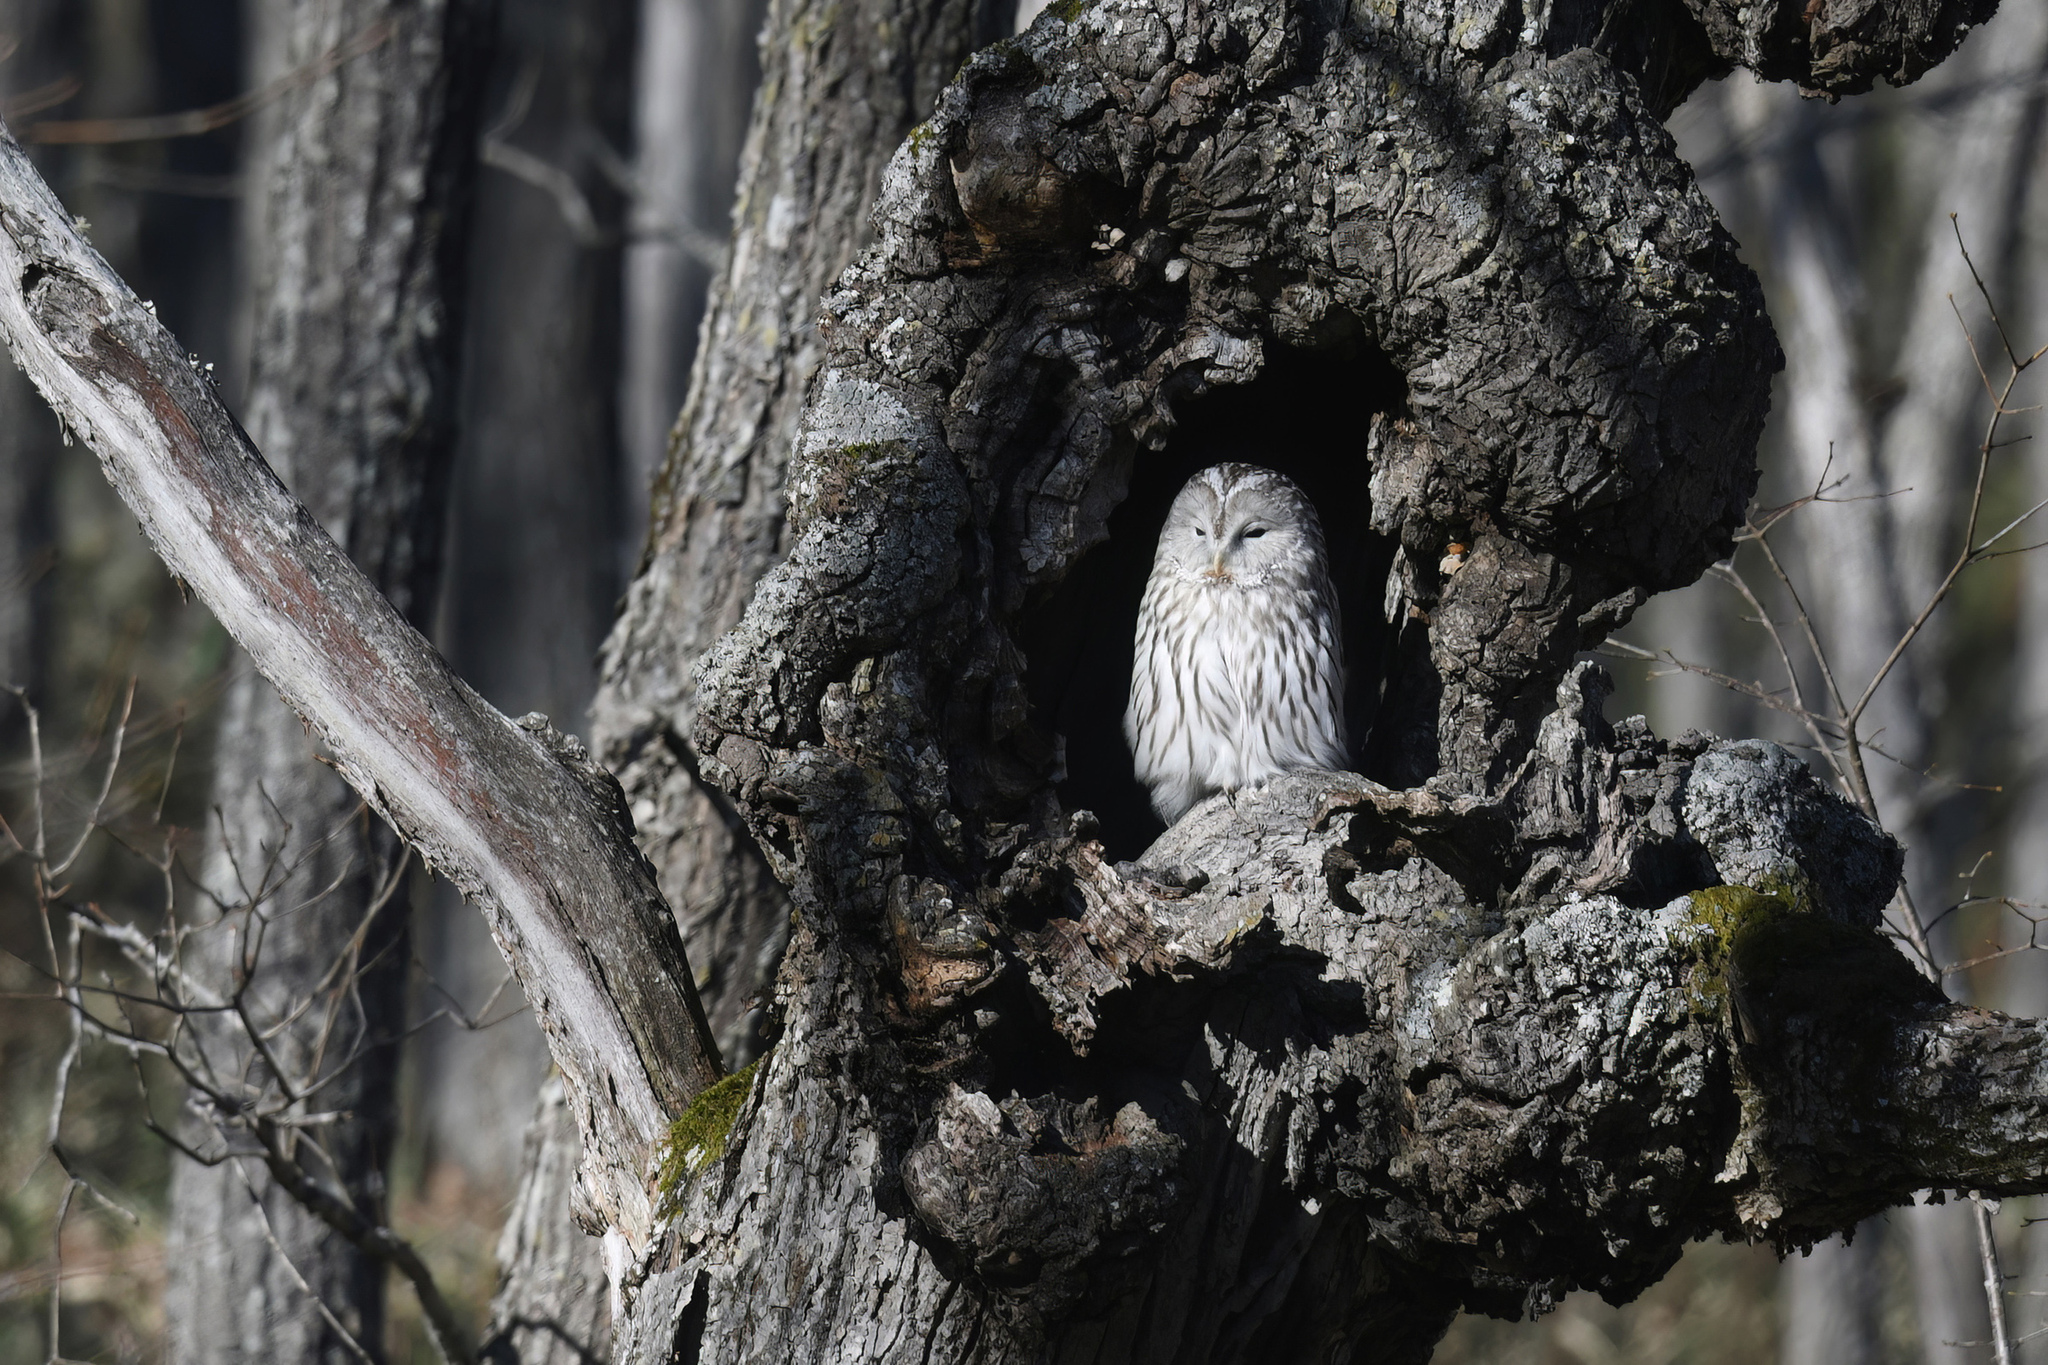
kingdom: Animalia
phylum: Chordata
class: Aves
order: Strigiformes
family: Strigidae
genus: Strix
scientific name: Strix uralensis
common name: Ural owl
